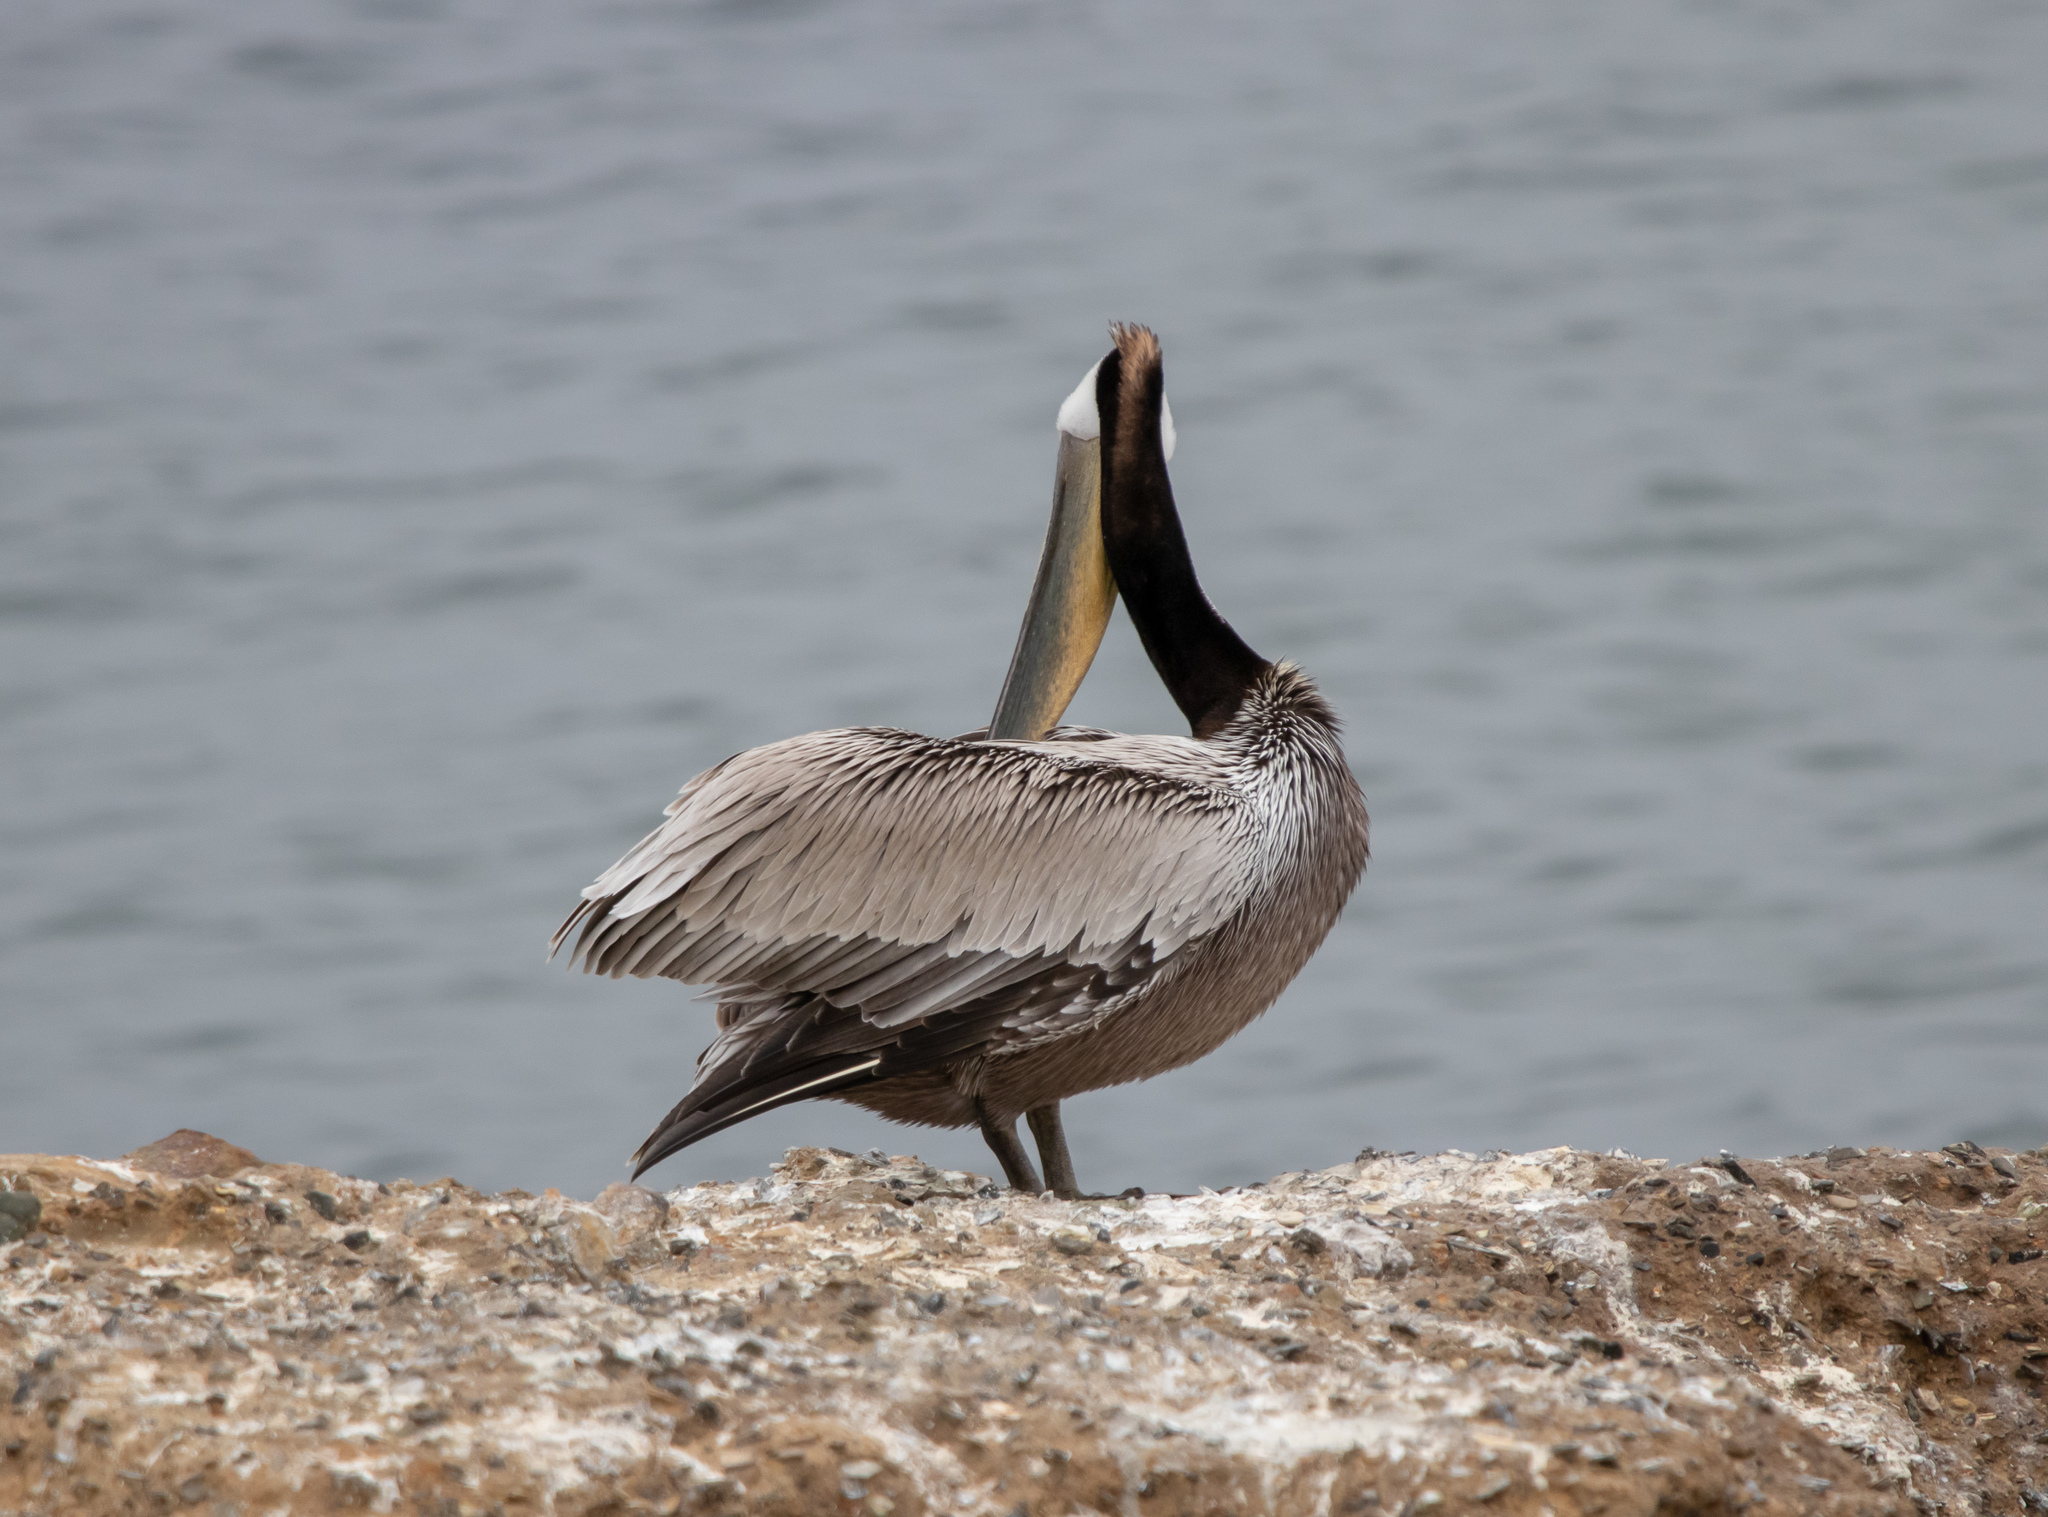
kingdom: Animalia
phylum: Chordata
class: Aves
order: Pelecaniformes
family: Pelecanidae
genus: Pelecanus
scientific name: Pelecanus occidentalis
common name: Brown pelican
